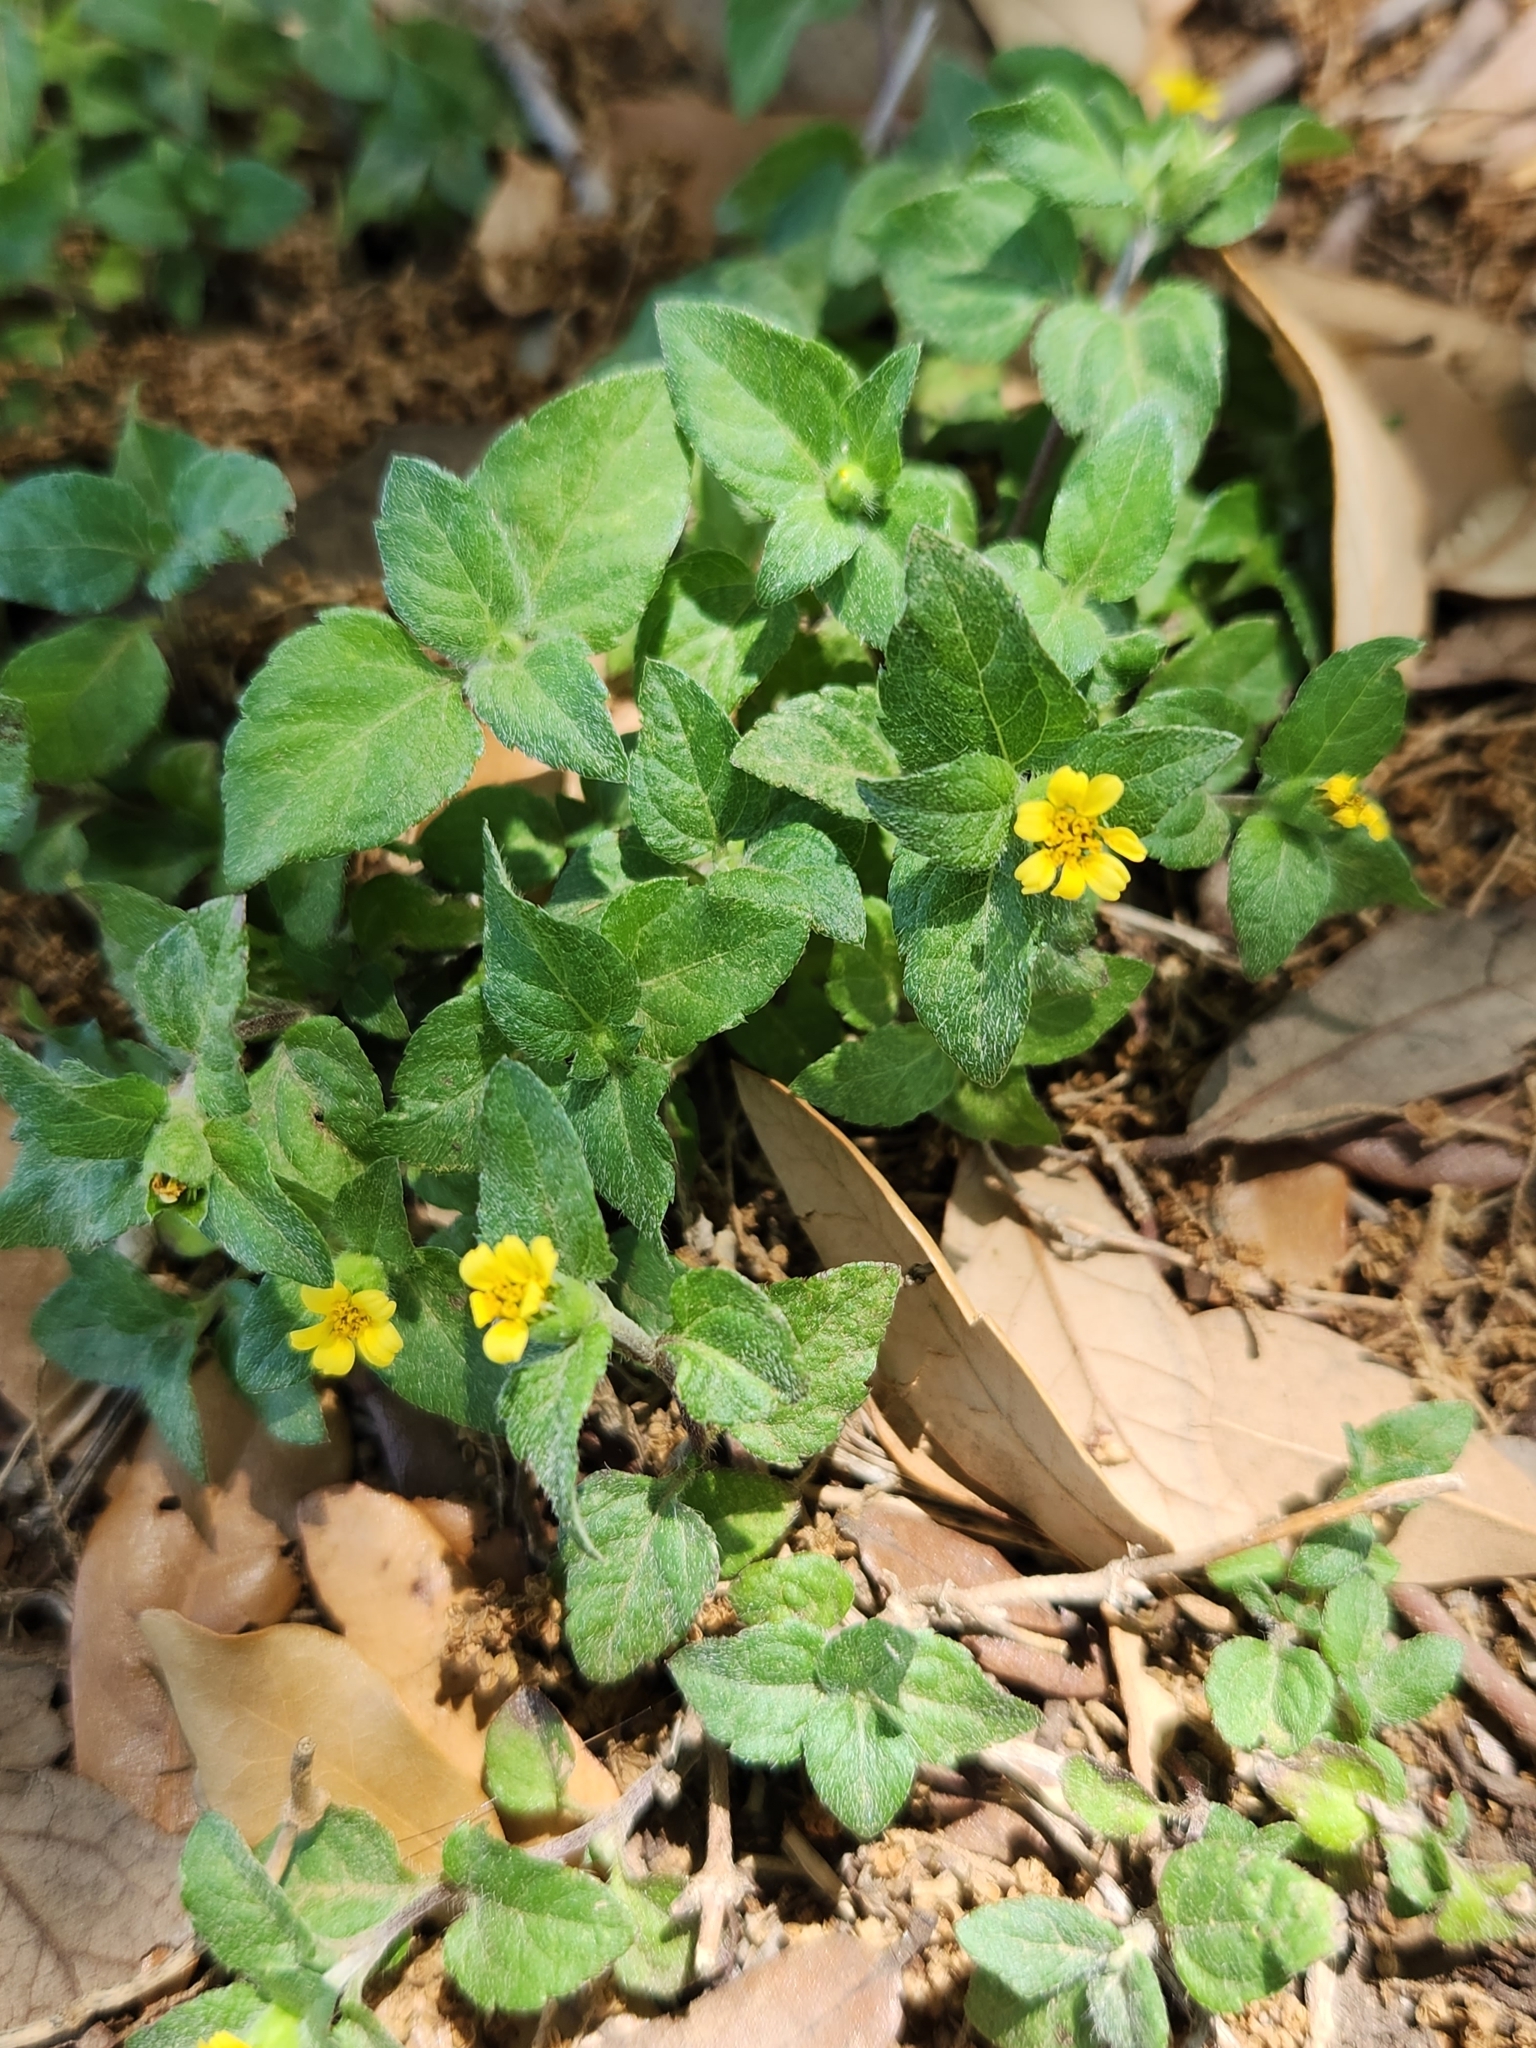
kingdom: Plantae
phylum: Tracheophyta
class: Magnoliopsida
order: Asterales
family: Asteraceae
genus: Calyptocarpus
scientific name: Calyptocarpus vialis
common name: Straggler daisy
